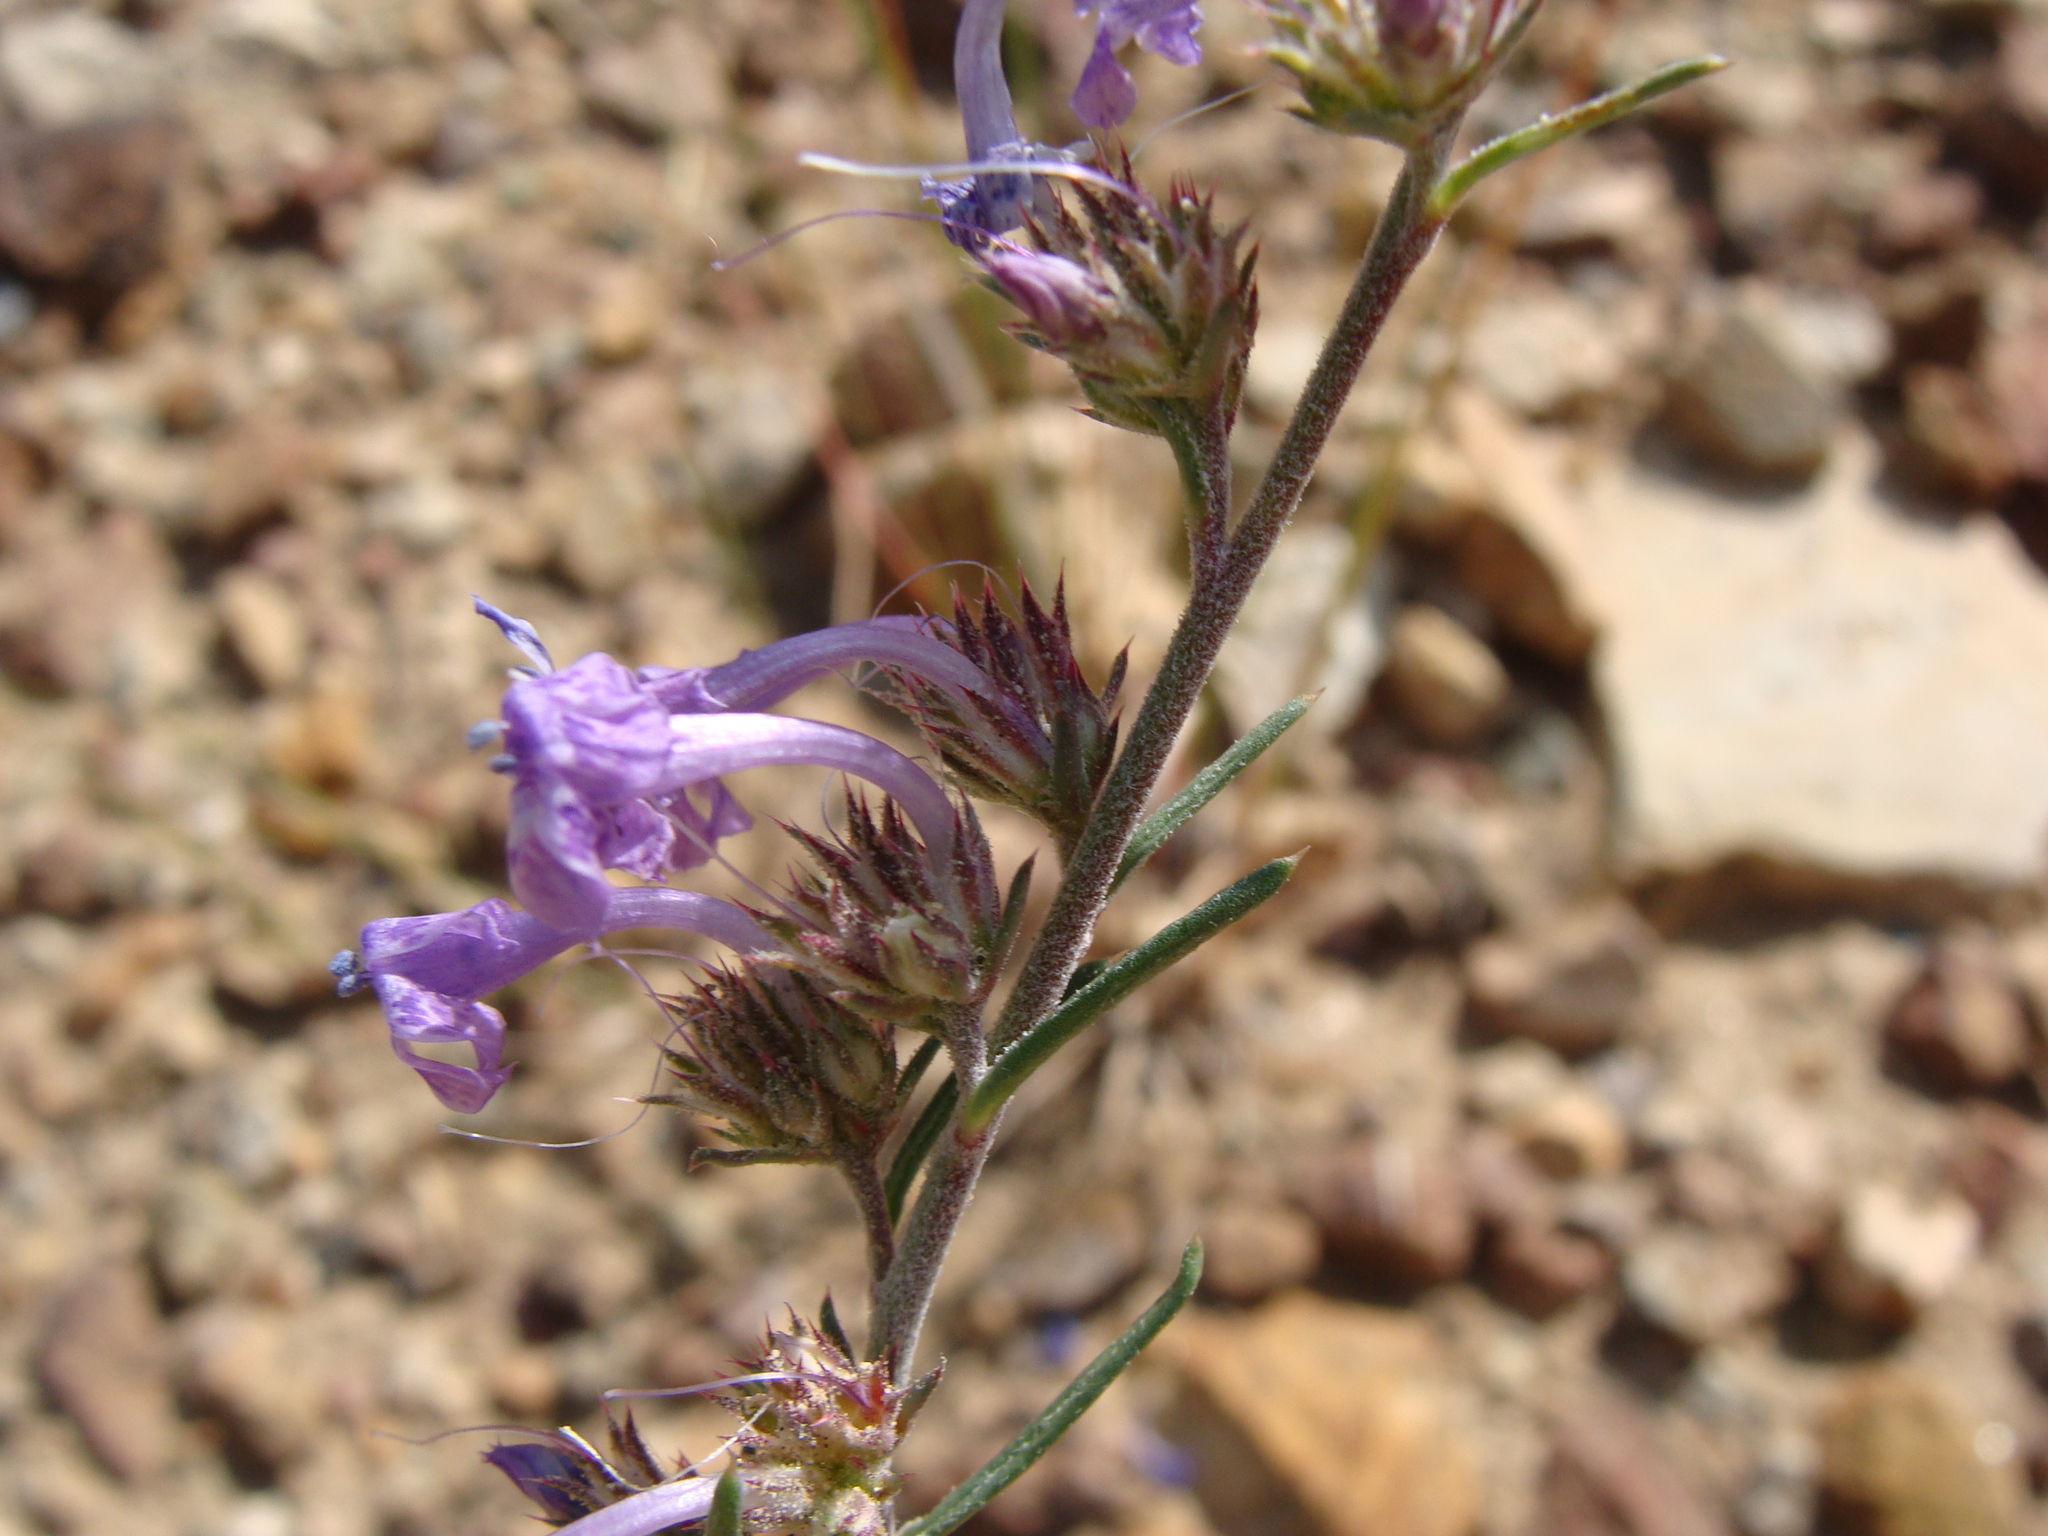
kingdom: Plantae
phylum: Tracheophyta
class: Magnoliopsida
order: Ericales
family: Polemoniaceae
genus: Ipomopsis
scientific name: Ipomopsis thurberi
